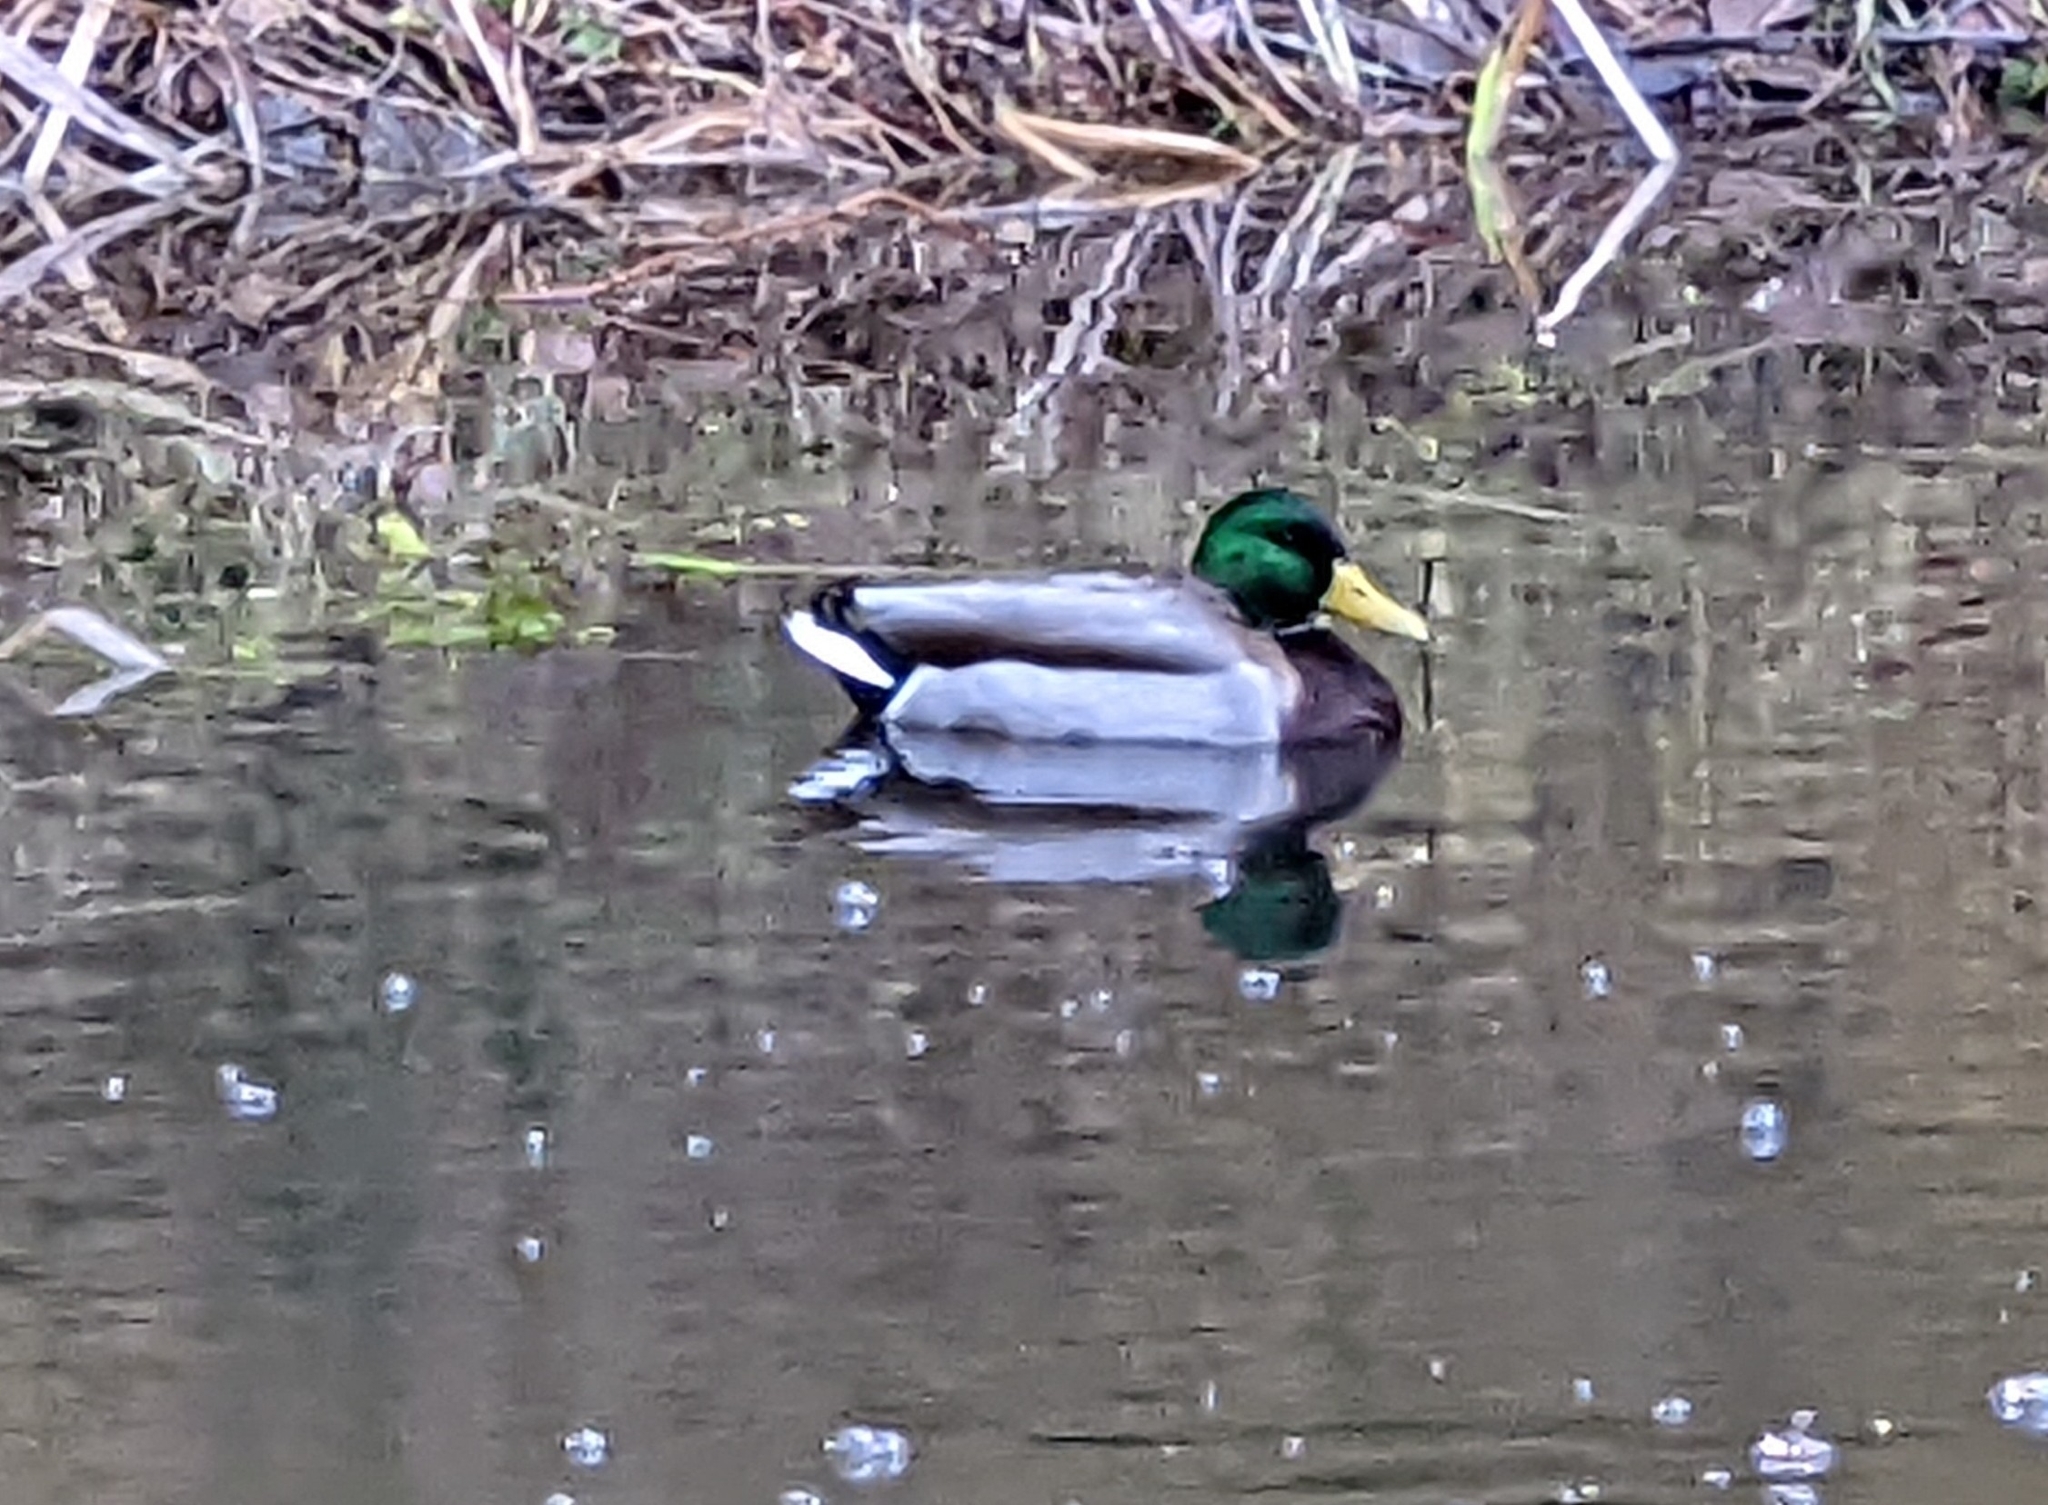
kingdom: Animalia
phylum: Chordata
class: Aves
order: Anseriformes
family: Anatidae
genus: Anas
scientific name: Anas platyrhynchos
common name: Mallard
